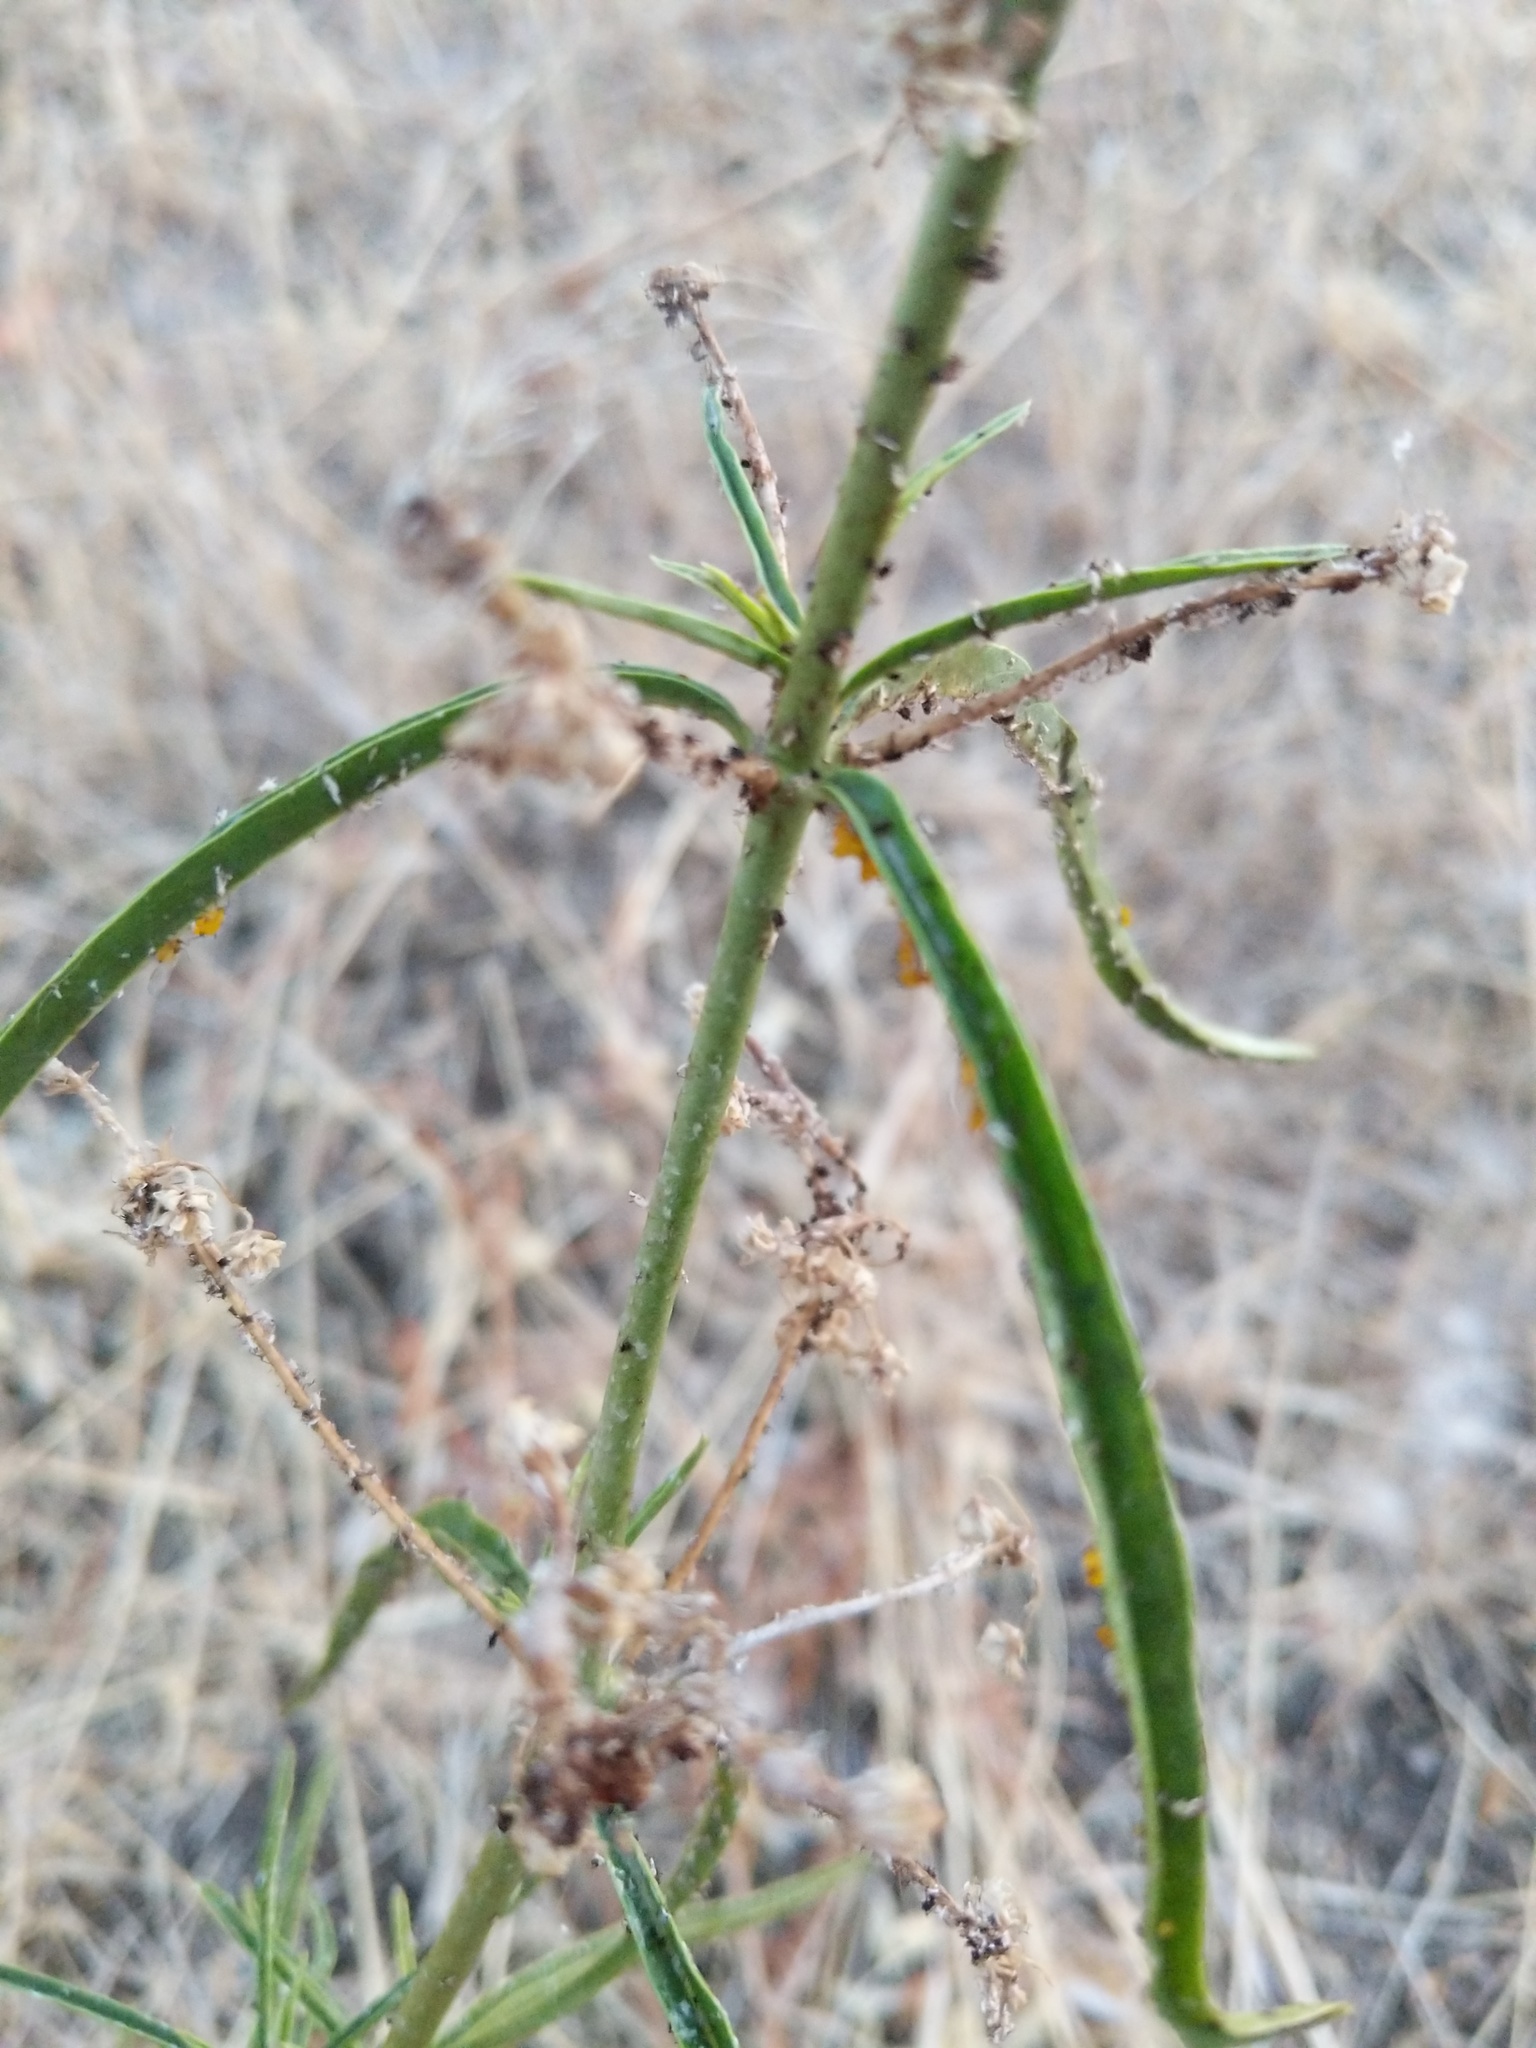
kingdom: Plantae
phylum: Tracheophyta
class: Magnoliopsida
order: Gentianales
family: Apocynaceae
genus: Asclepias
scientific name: Asclepias fascicularis
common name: Mexican milkweed
